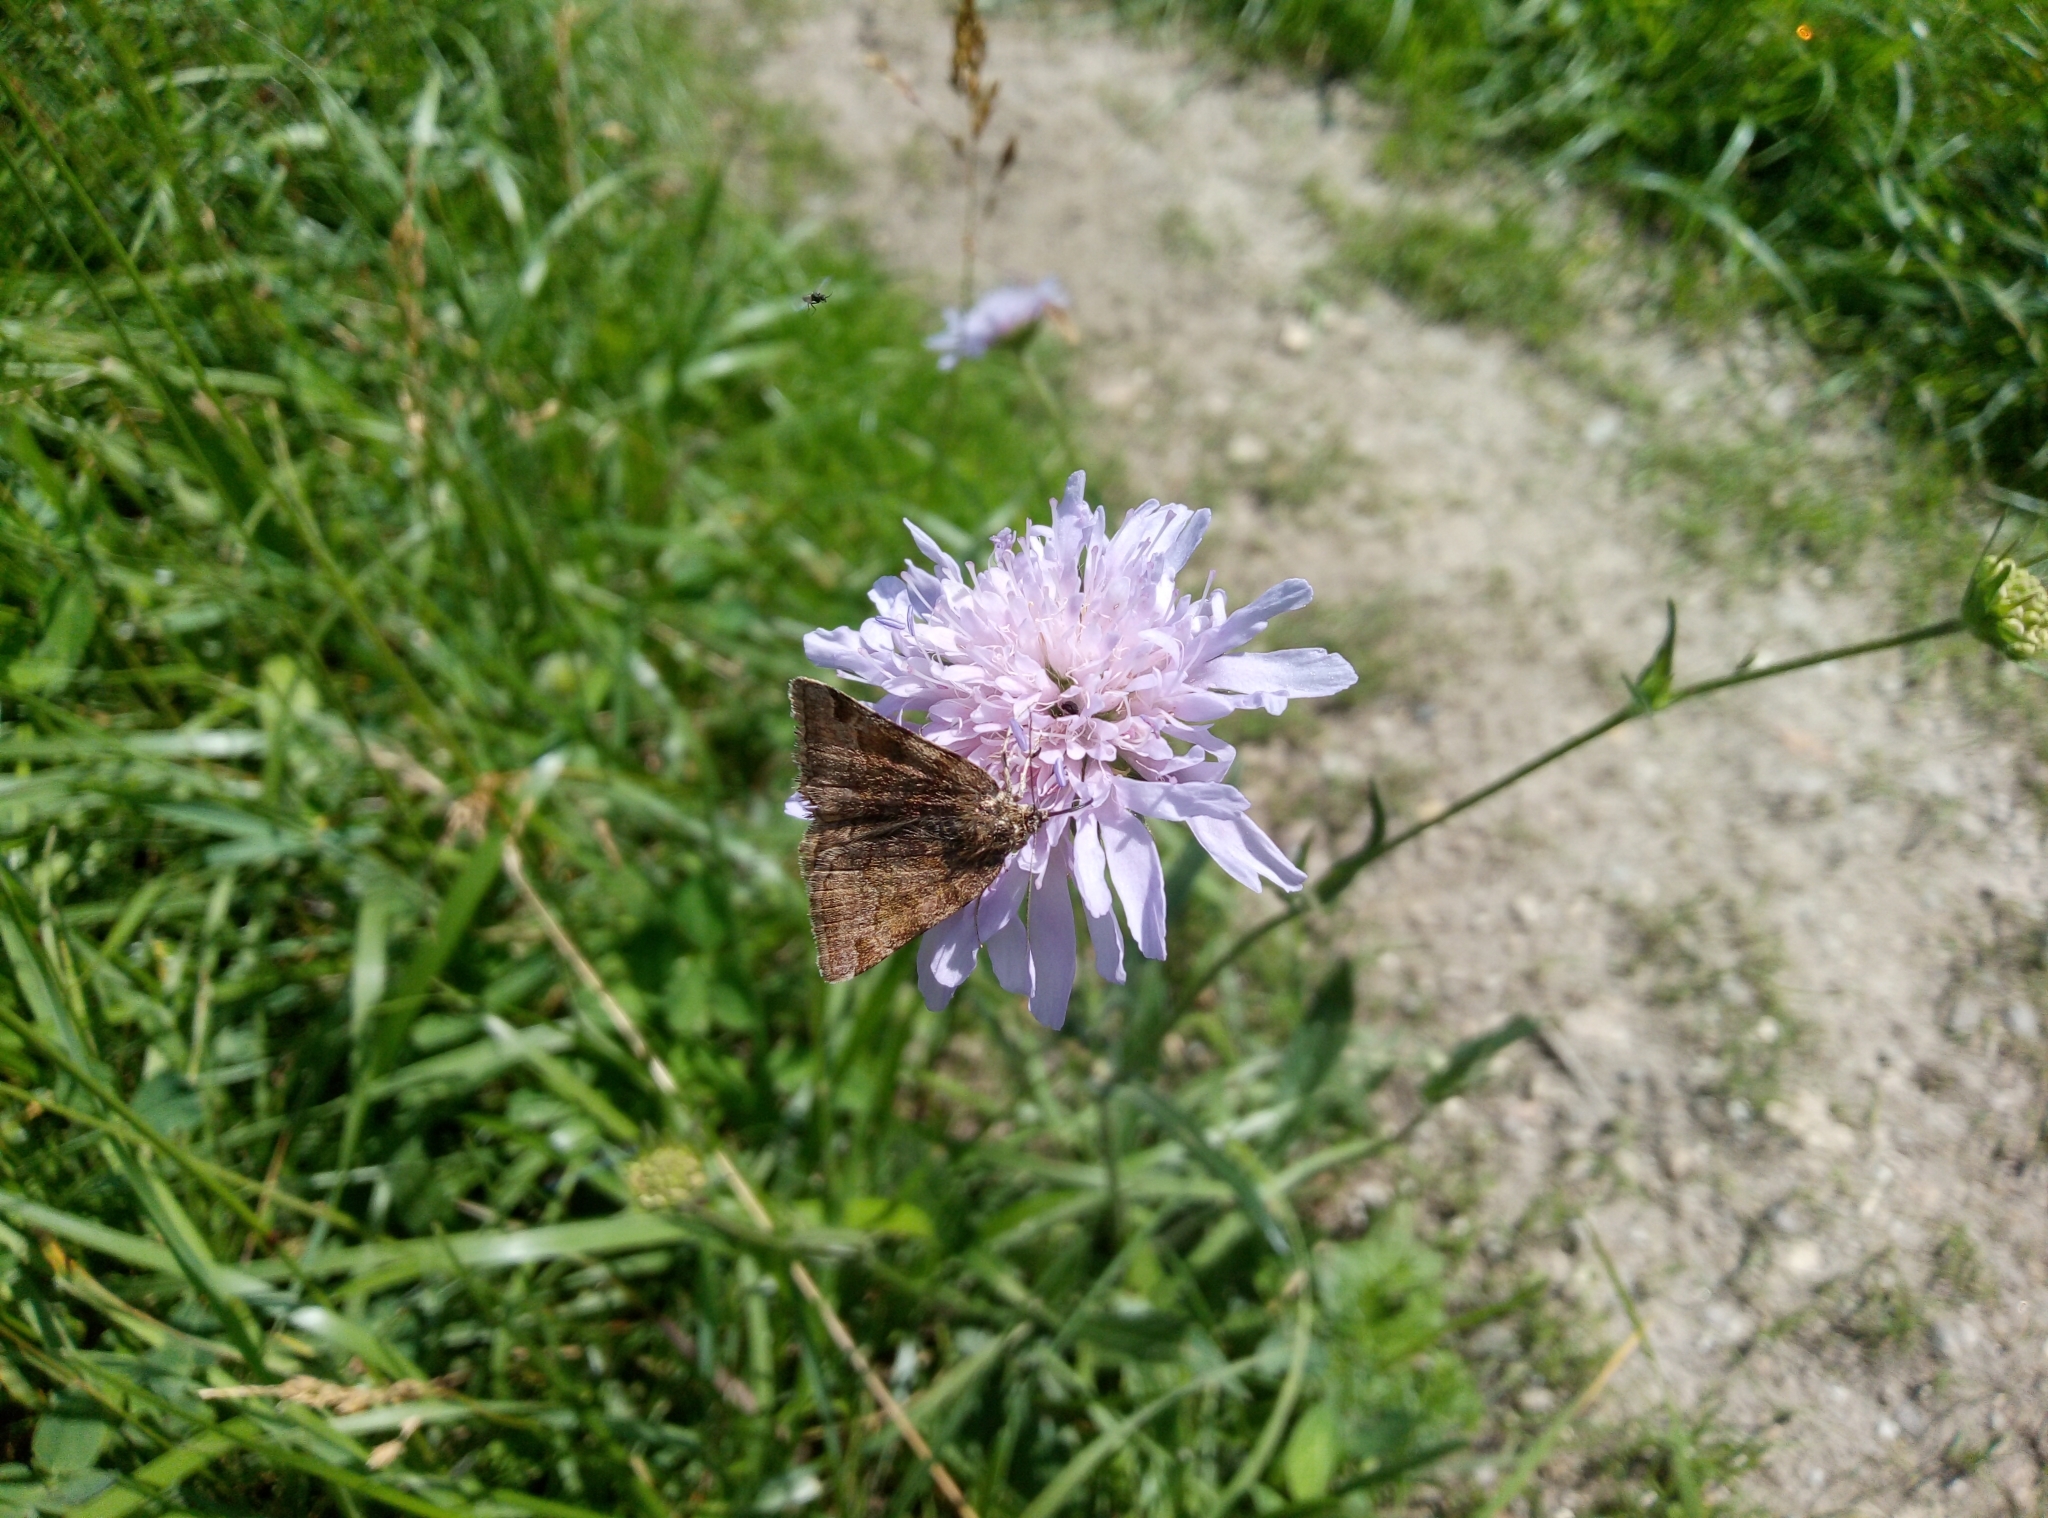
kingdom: Animalia
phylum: Arthropoda
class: Insecta
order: Lepidoptera
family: Erebidae
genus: Euclidia
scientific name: Euclidia glyphica
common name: Burnet companion
